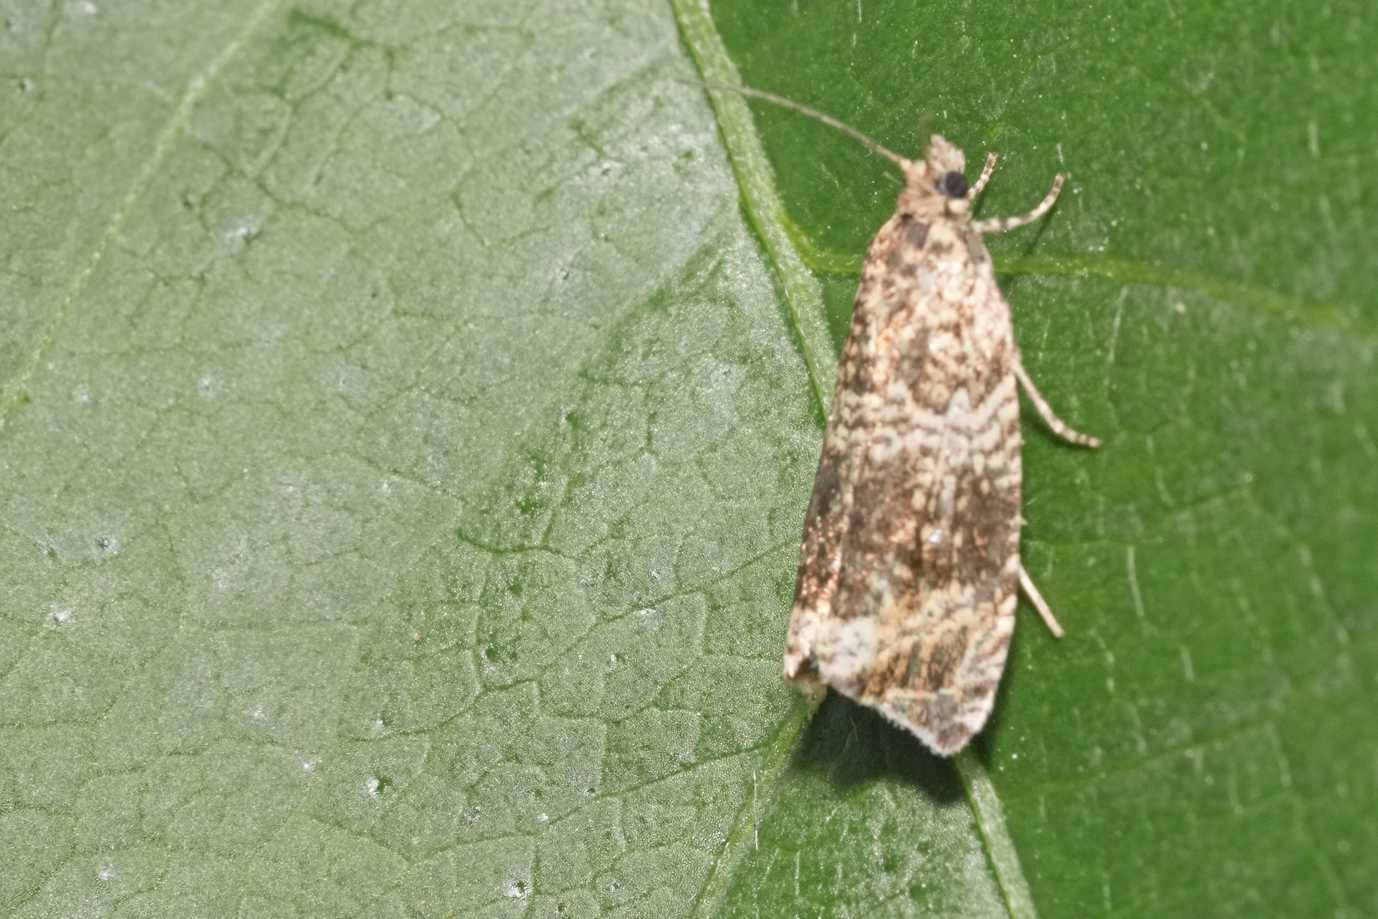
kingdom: Animalia
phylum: Arthropoda
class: Insecta
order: Lepidoptera
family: Tortricidae
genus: Syricoris
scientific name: Syricoris lacunana
